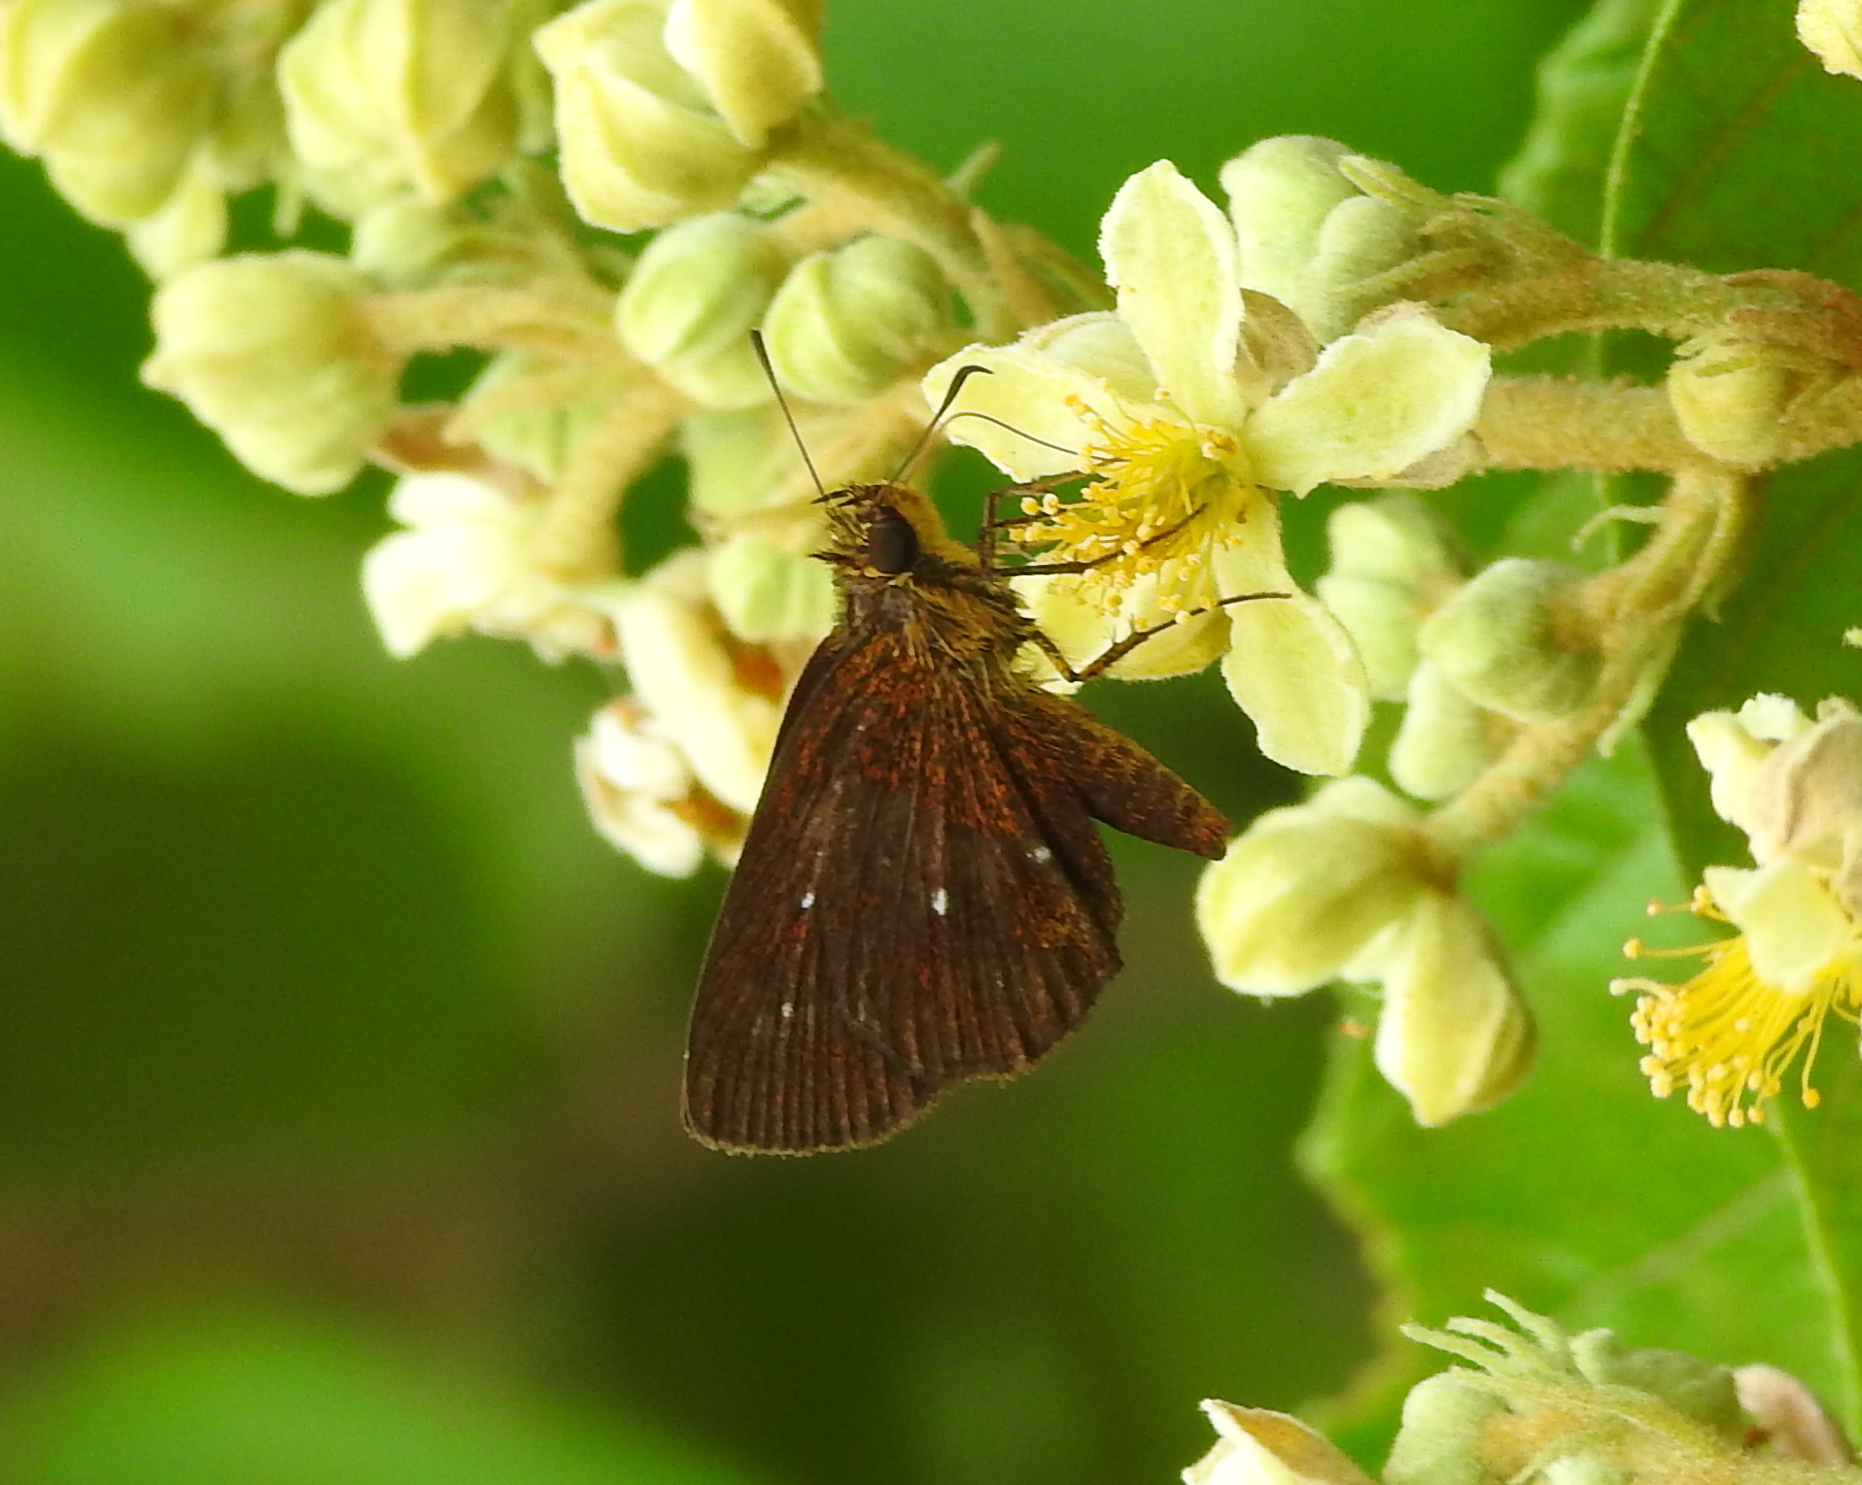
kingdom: Animalia
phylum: Arthropoda
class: Insecta
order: Lepidoptera
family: Hesperiidae
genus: Iambrix
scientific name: Iambrix salsala
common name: Chestnut bob
